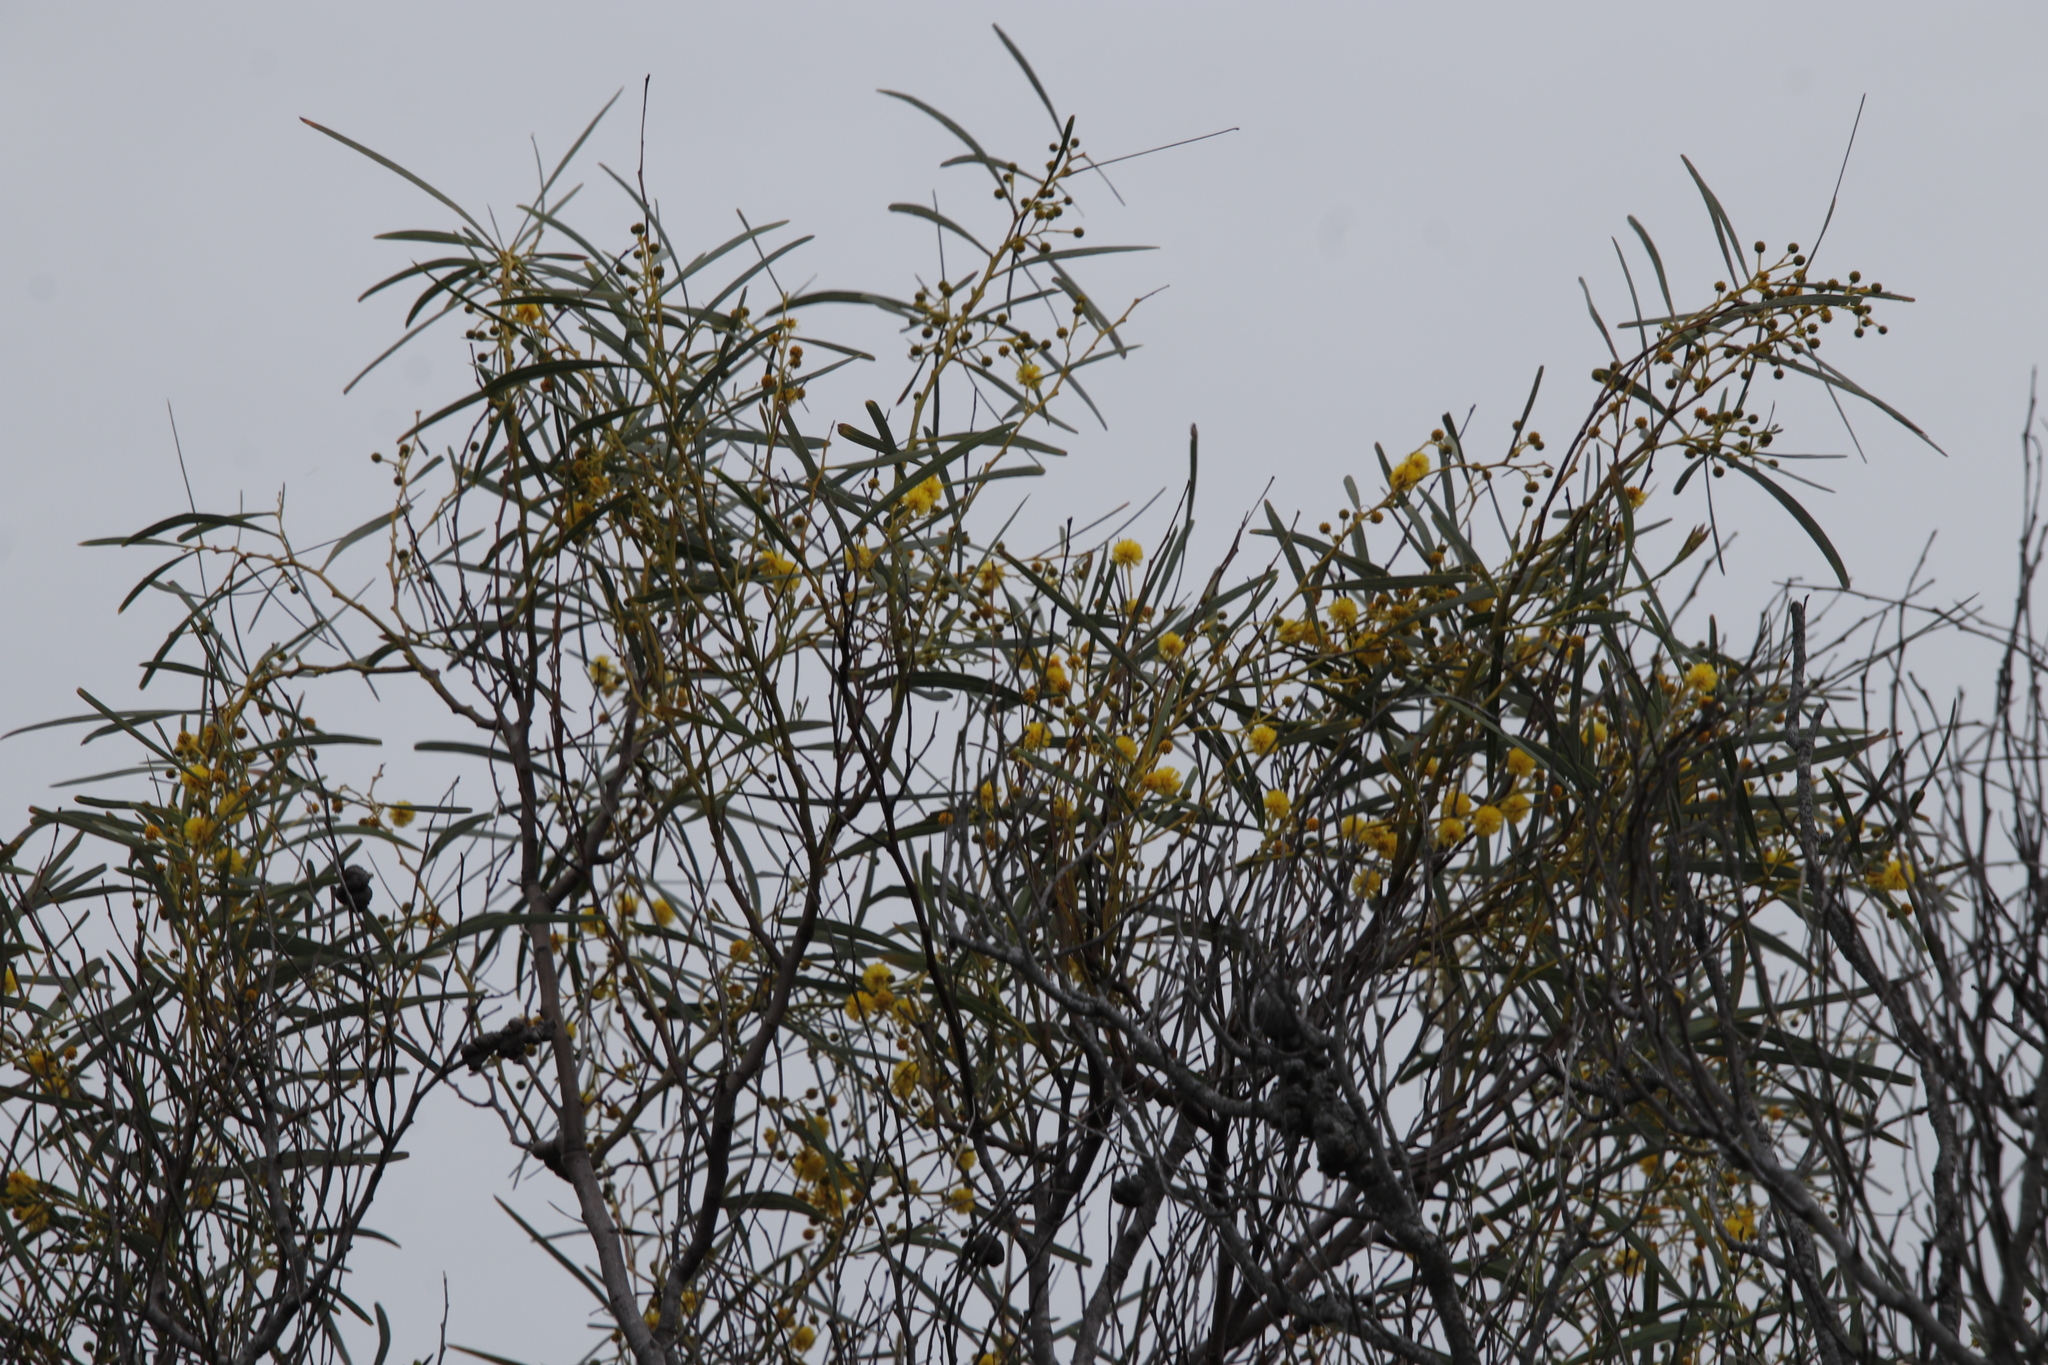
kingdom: Plantae
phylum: Tracheophyta
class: Magnoliopsida
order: Fabales
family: Fabaceae
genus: Acacia
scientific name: Acacia saligna
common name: Orange wattle
